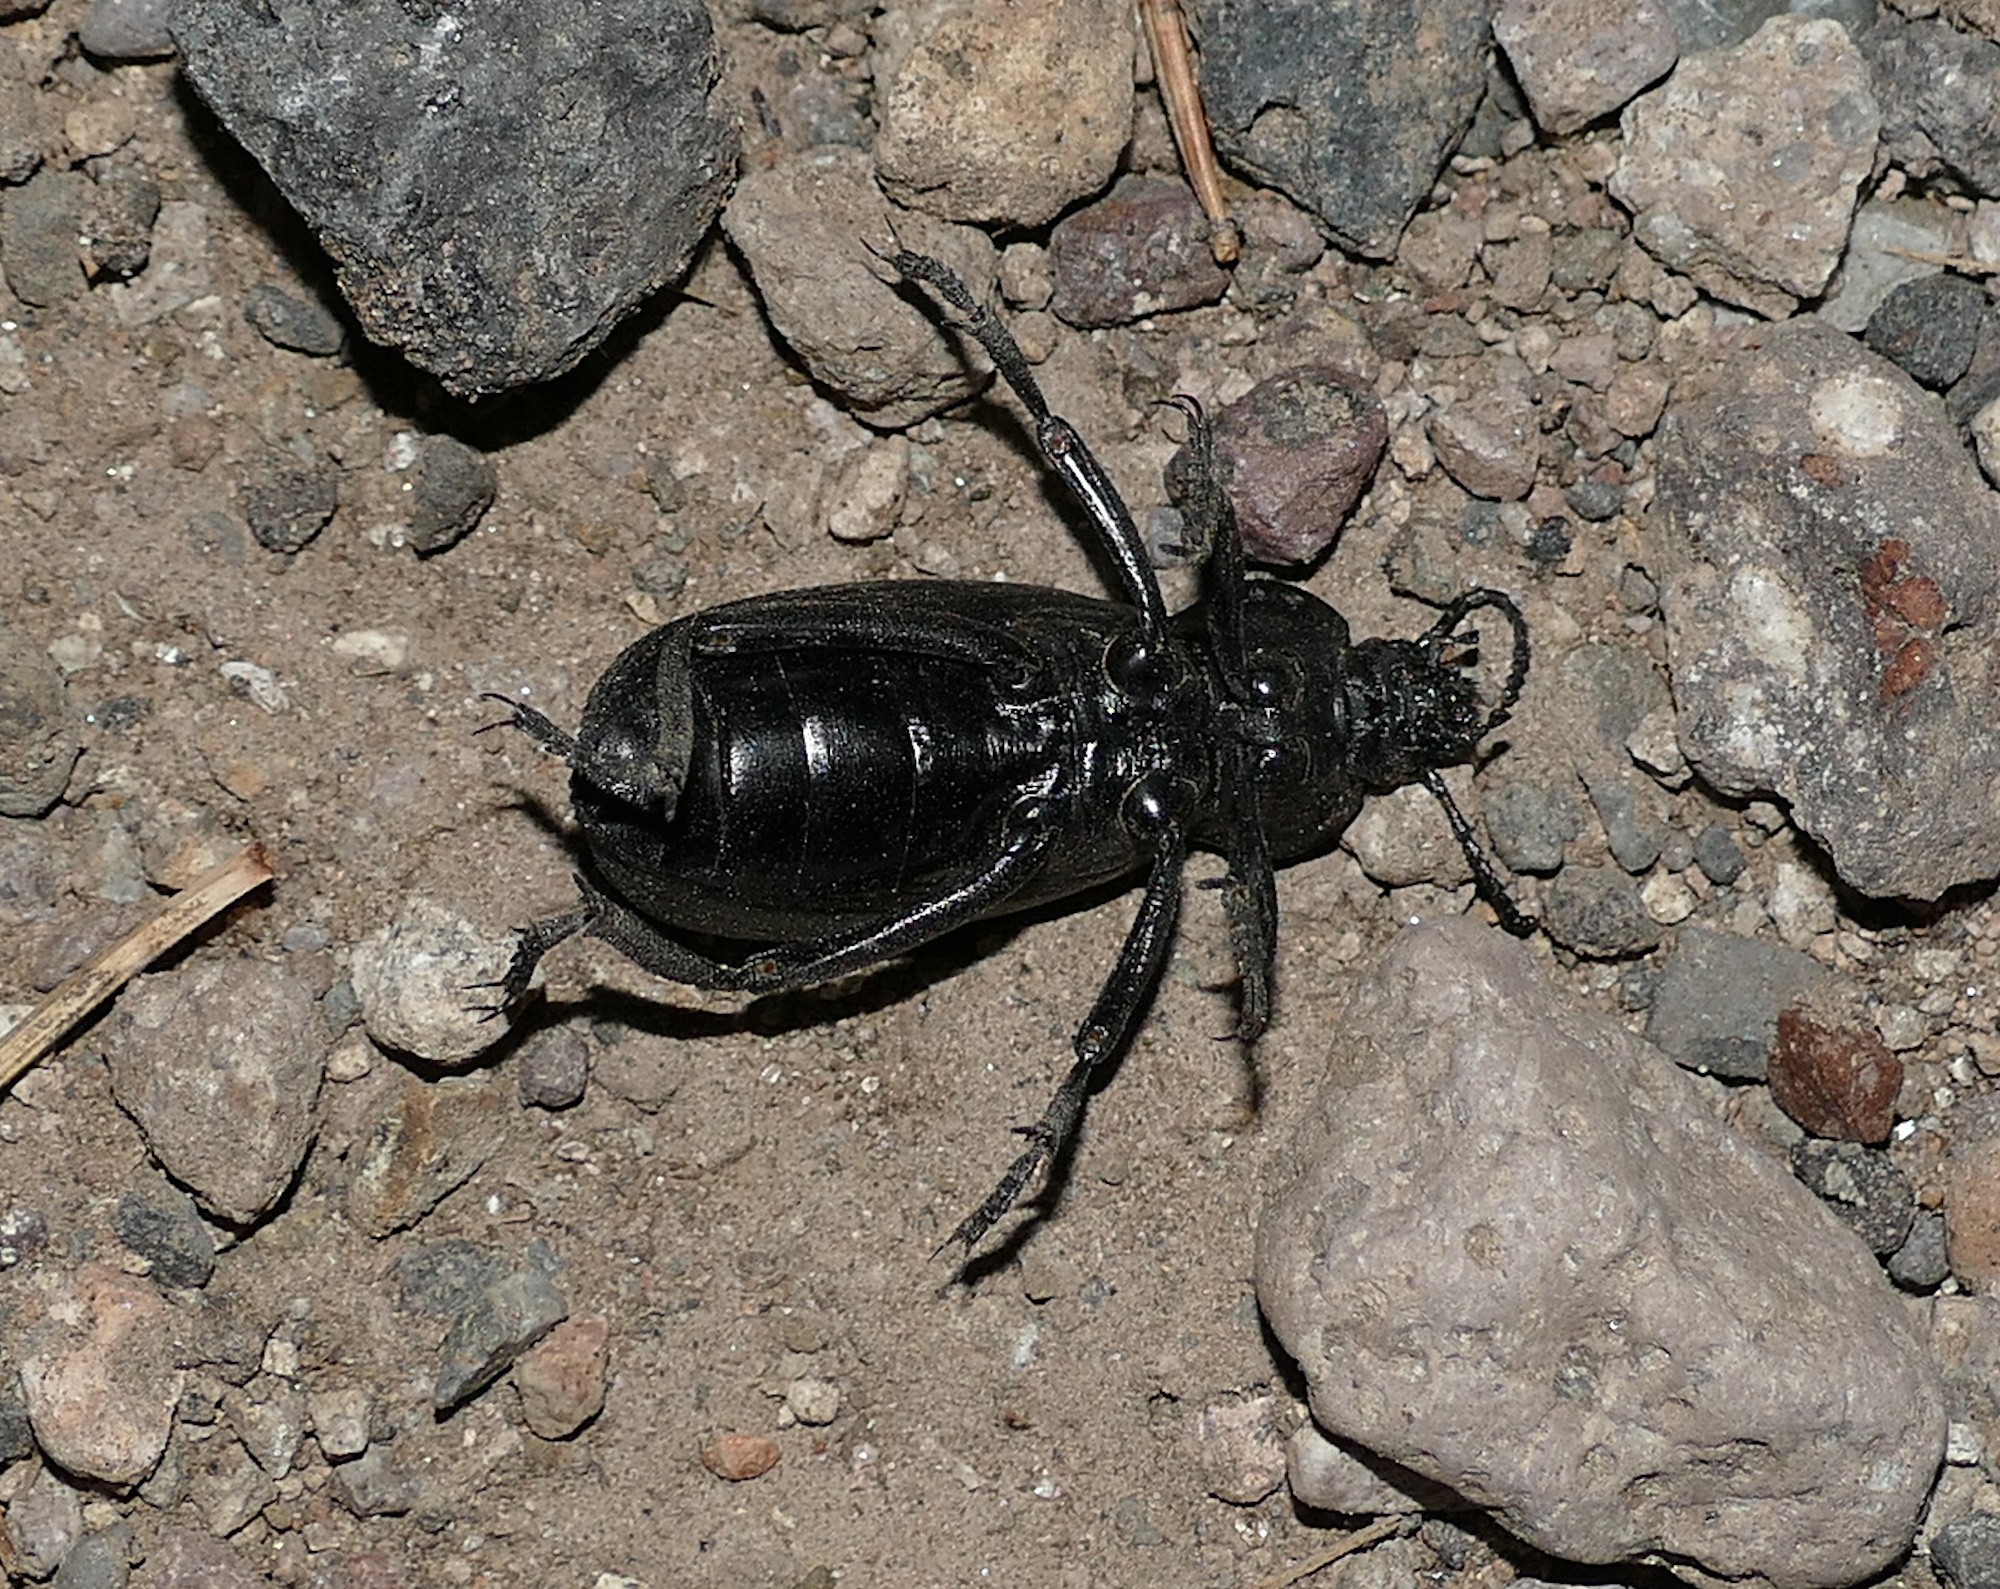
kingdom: Animalia
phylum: Arthropoda
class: Insecta
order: Coleoptera
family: Tenebrionidae
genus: Eleodes
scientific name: Eleodes obscura
